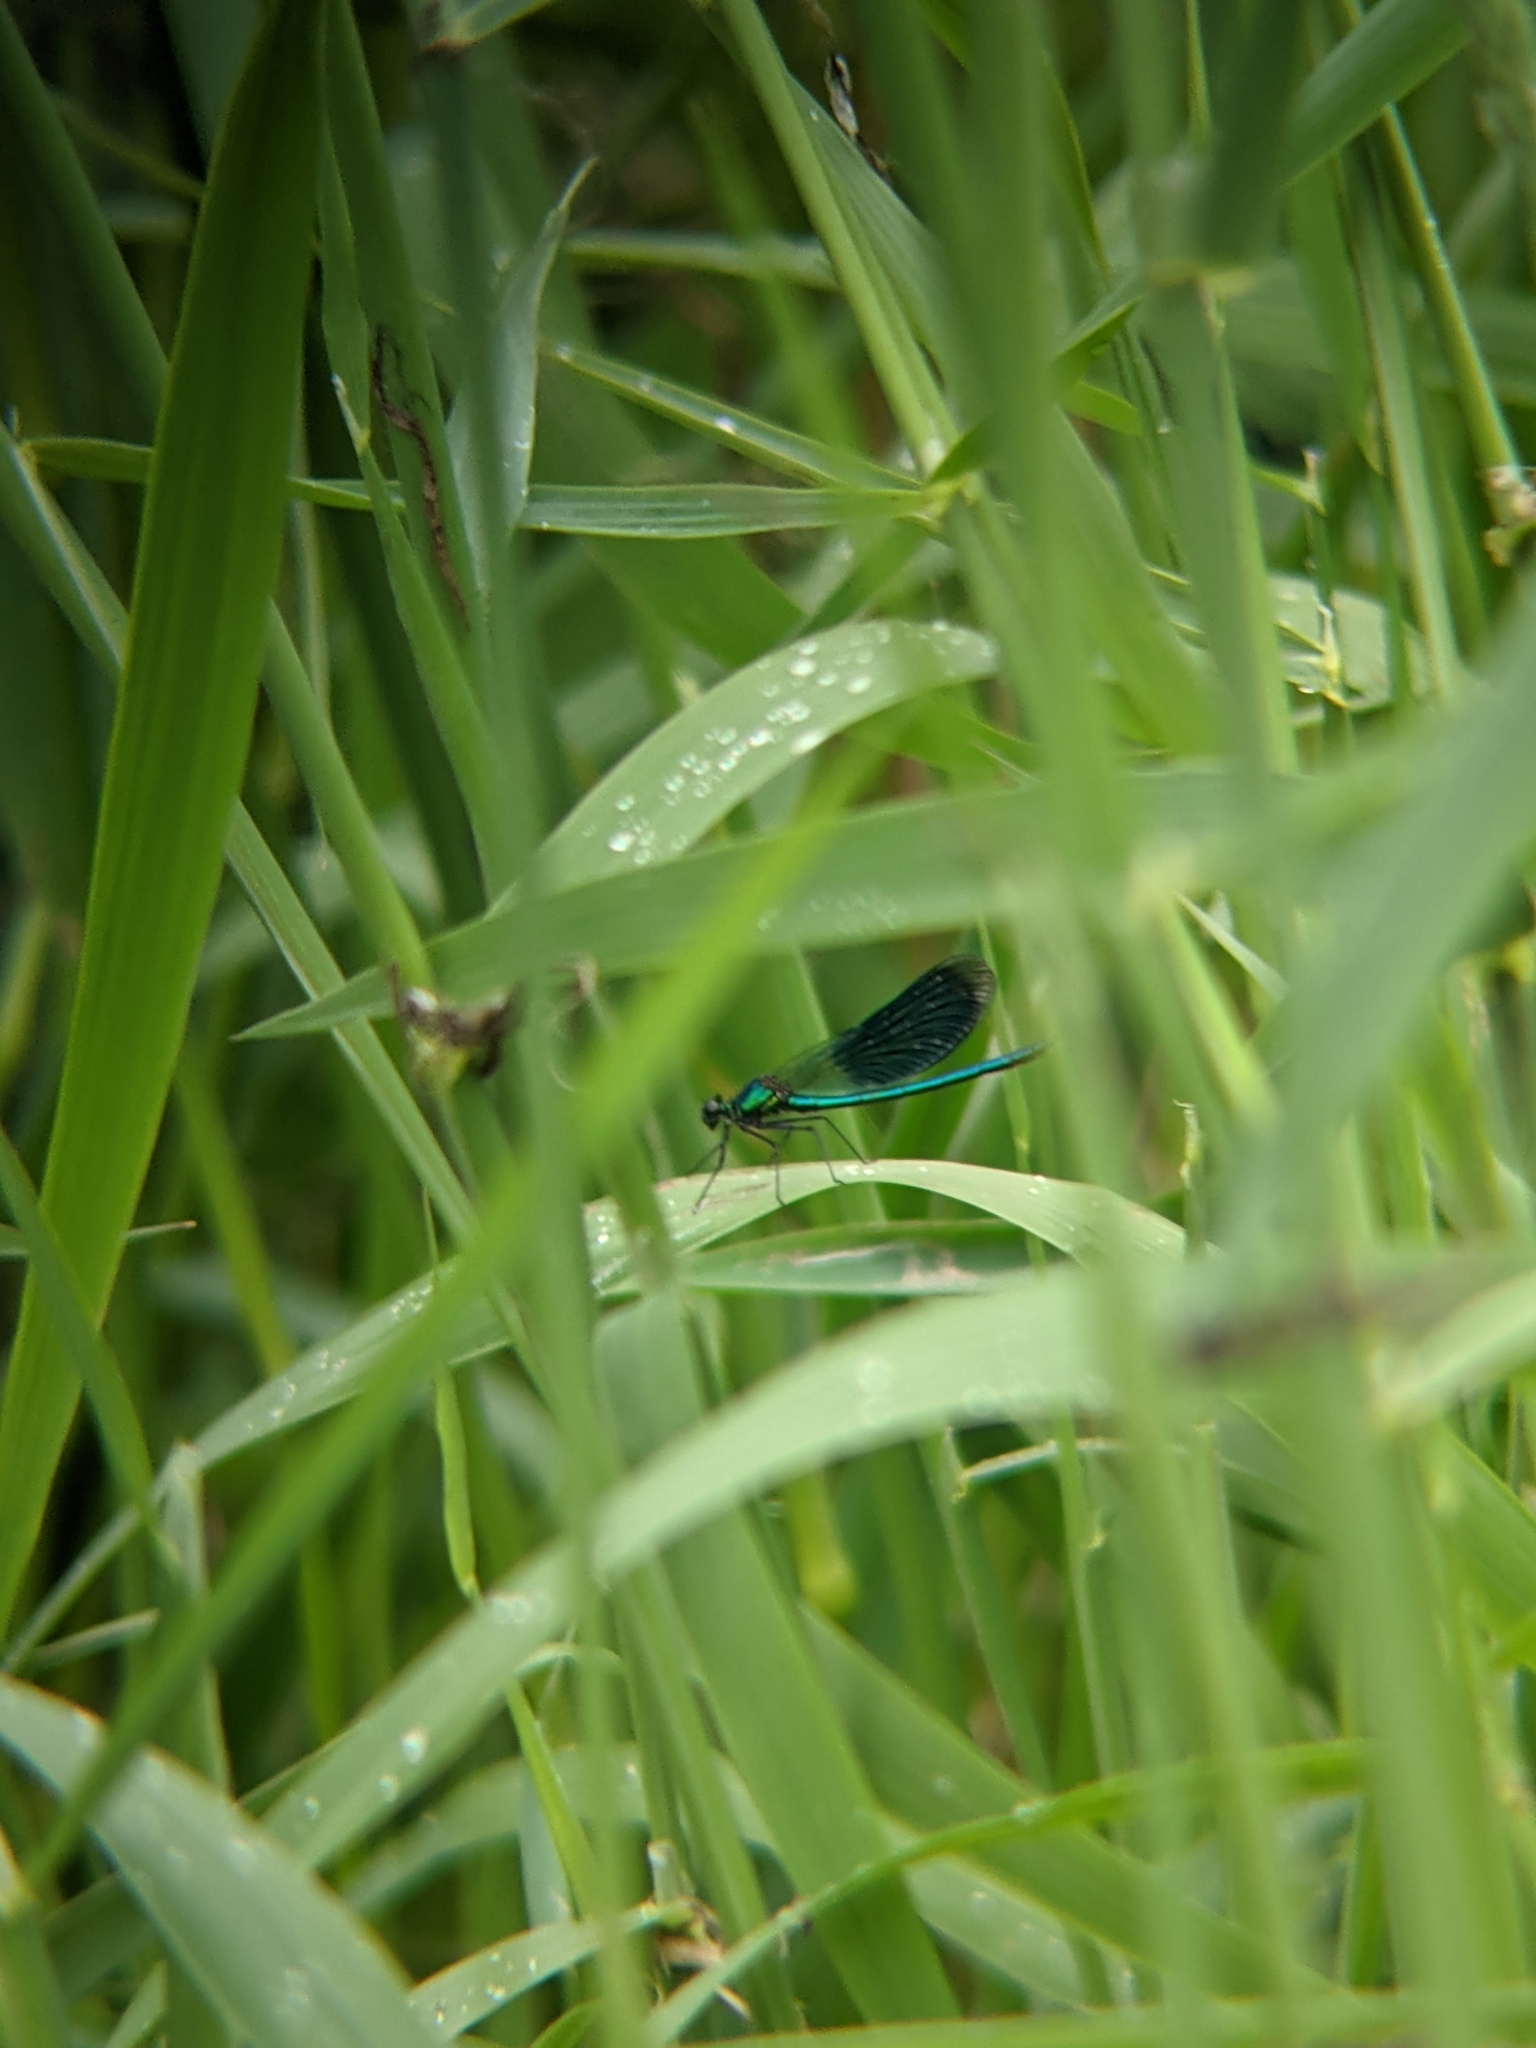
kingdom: Animalia
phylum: Arthropoda
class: Insecta
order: Odonata
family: Calopterygidae
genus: Calopteryx
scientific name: Calopteryx splendens
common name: Banded demoiselle
